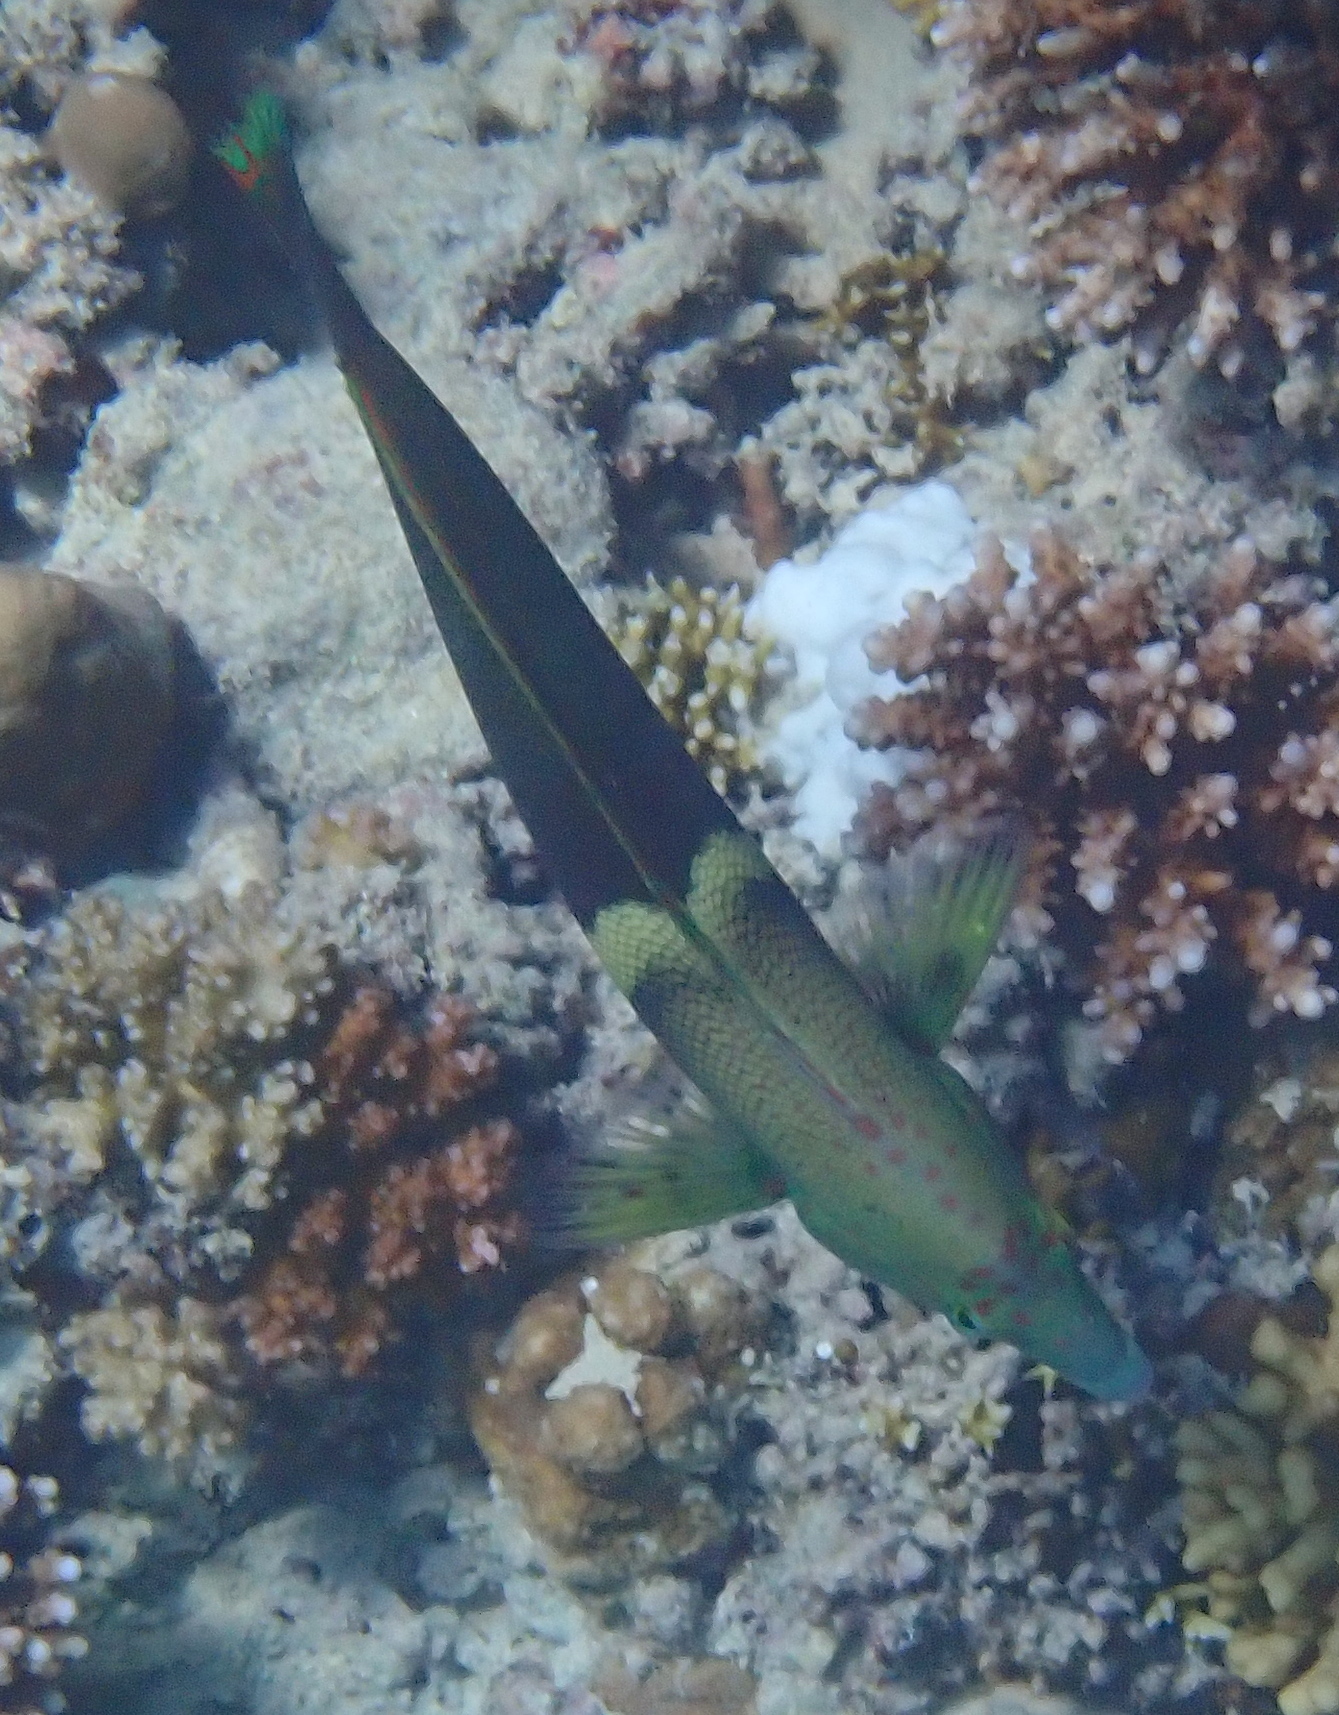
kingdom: Animalia
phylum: Chordata
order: Perciformes
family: Labridae
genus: Coris
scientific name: Coris aygula
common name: Clown coris
